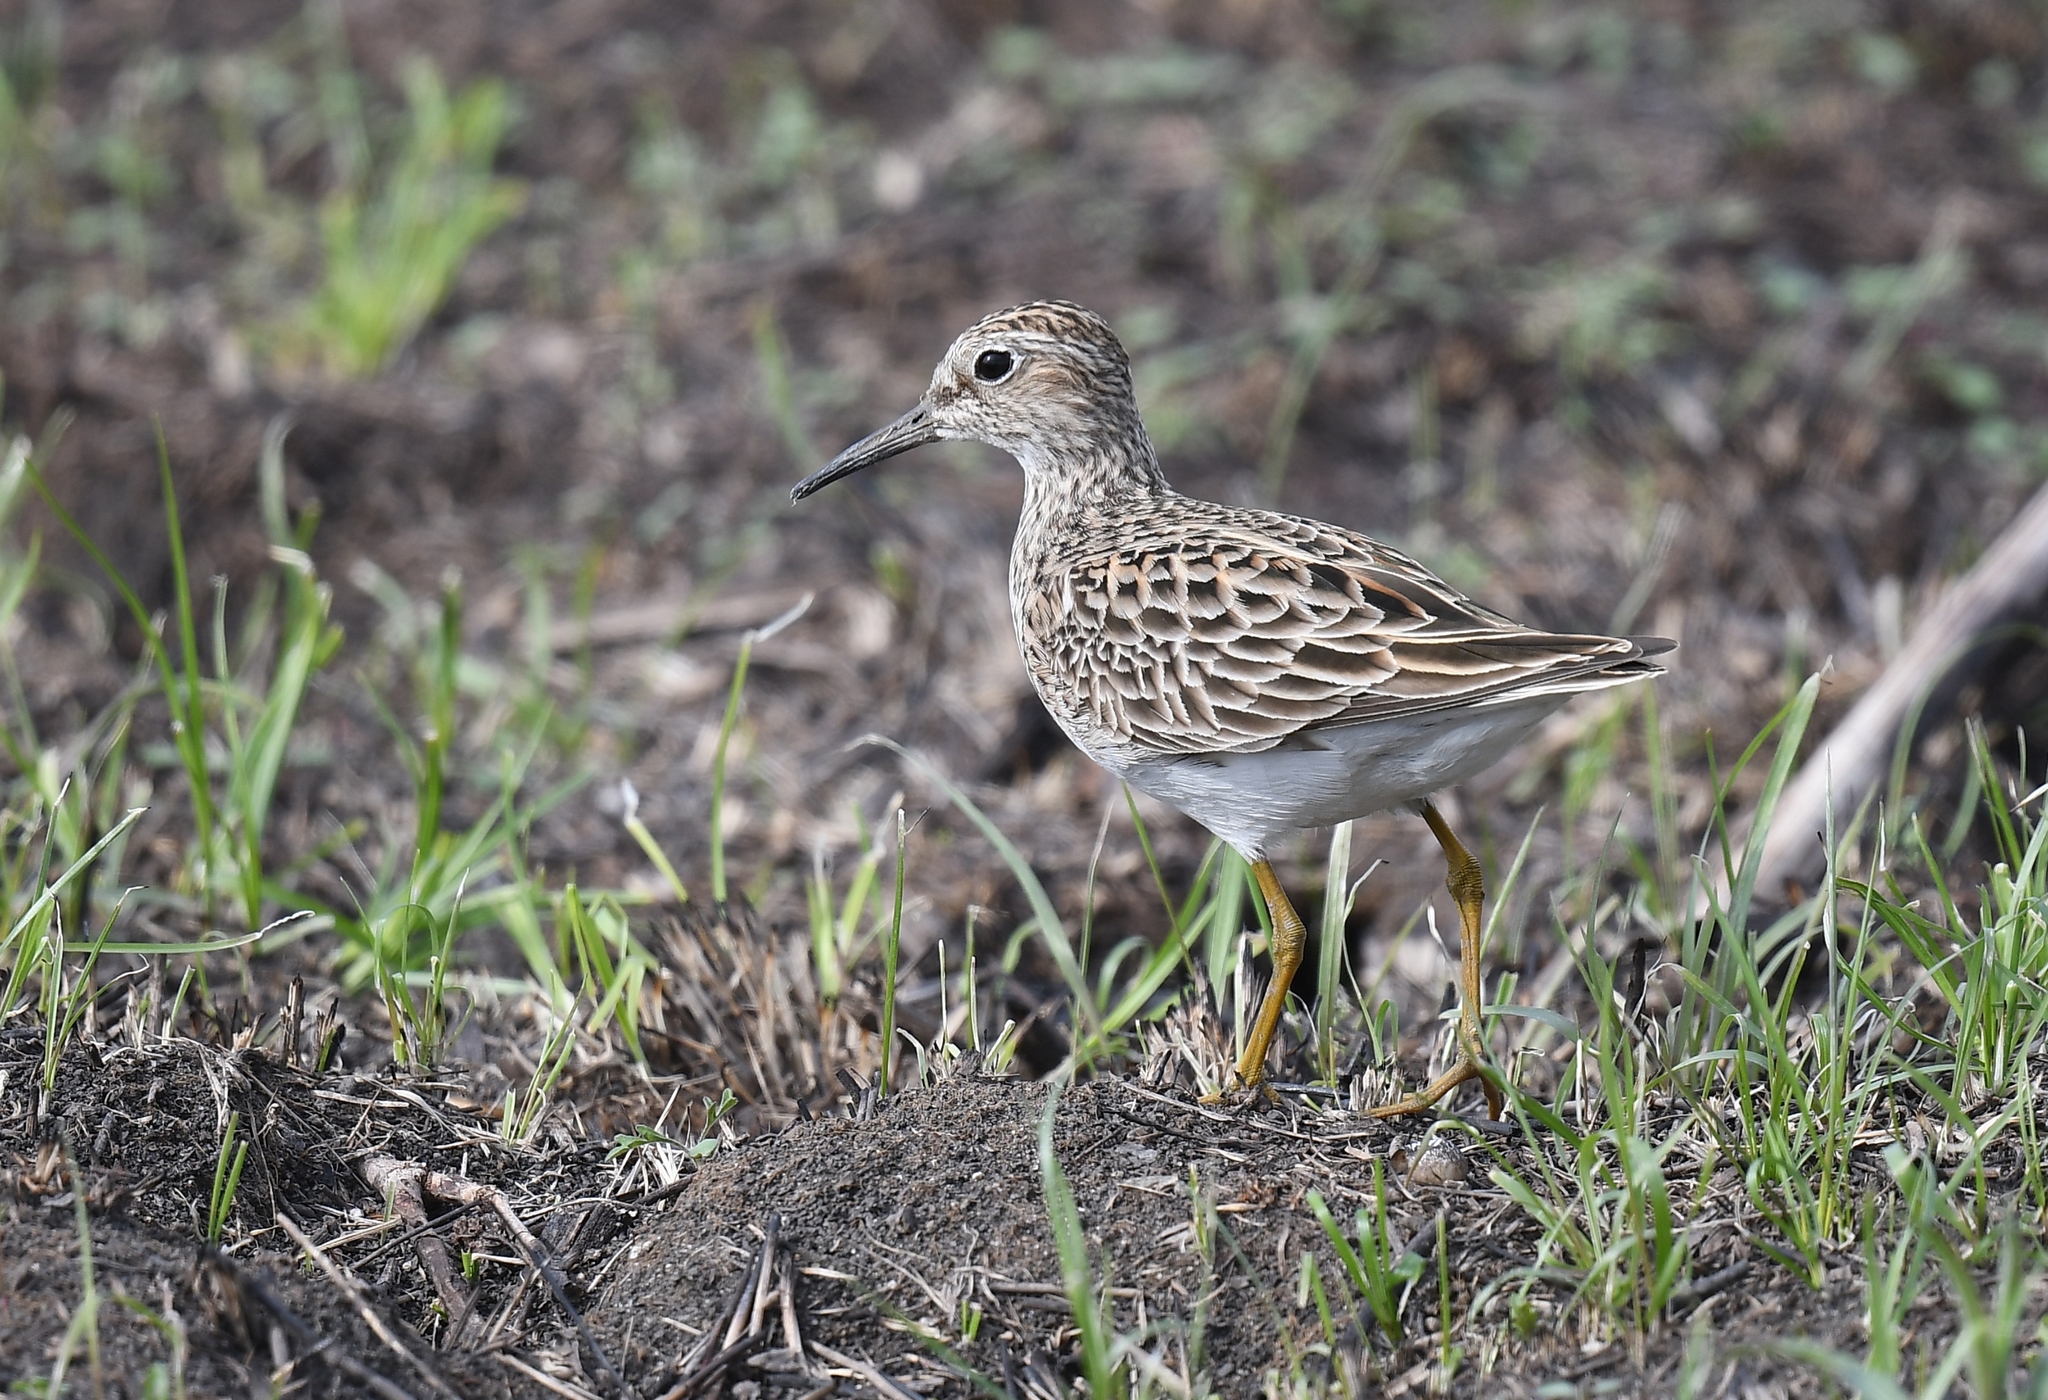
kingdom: Animalia
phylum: Chordata
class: Aves
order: Charadriiformes
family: Scolopacidae
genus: Calidris
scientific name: Calidris melanotos
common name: Pectoral sandpiper
